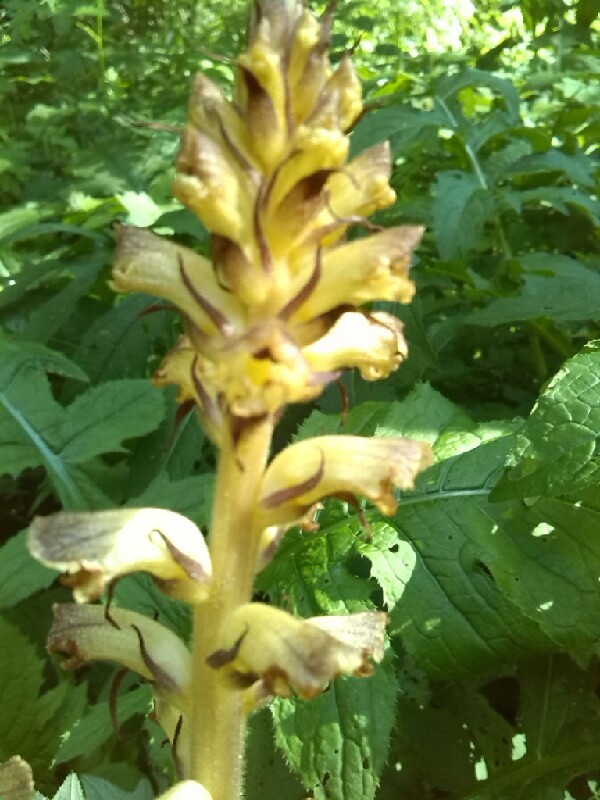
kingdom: Plantae
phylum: Tracheophyta
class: Magnoliopsida
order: Lamiales
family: Orobanchaceae
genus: Orobanche
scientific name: Orobanche reticulata
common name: Thistle broomrape
